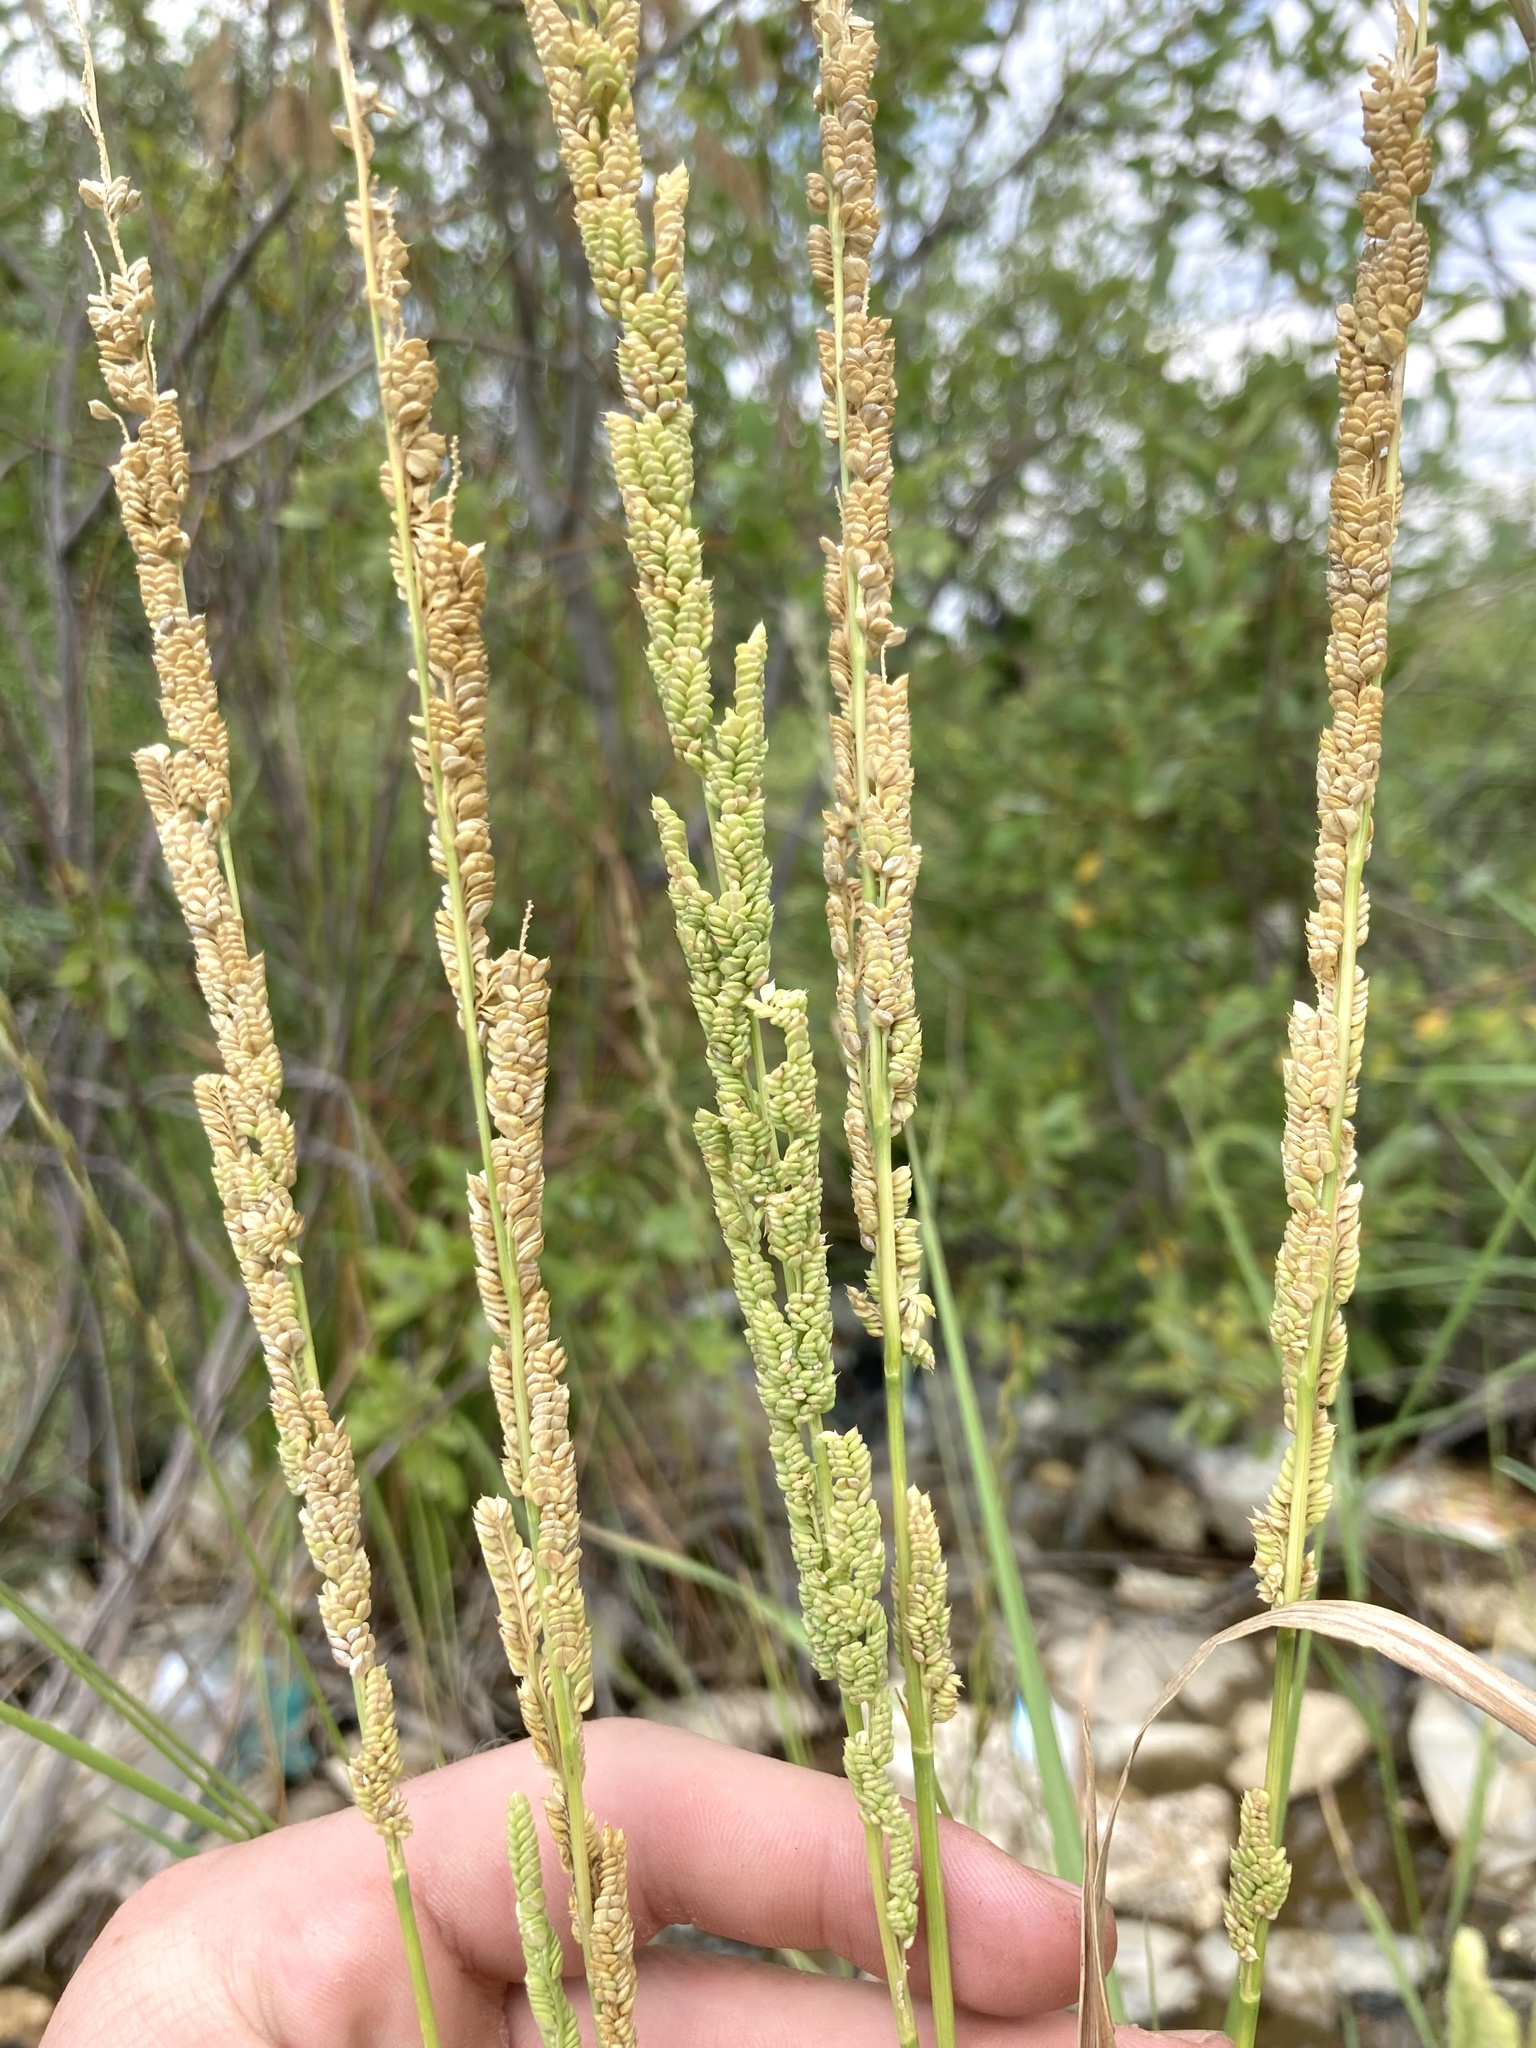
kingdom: Plantae
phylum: Tracheophyta
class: Liliopsida
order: Poales
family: Poaceae
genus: Beckmannia
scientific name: Beckmannia syzigachne
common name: American slough-grass
